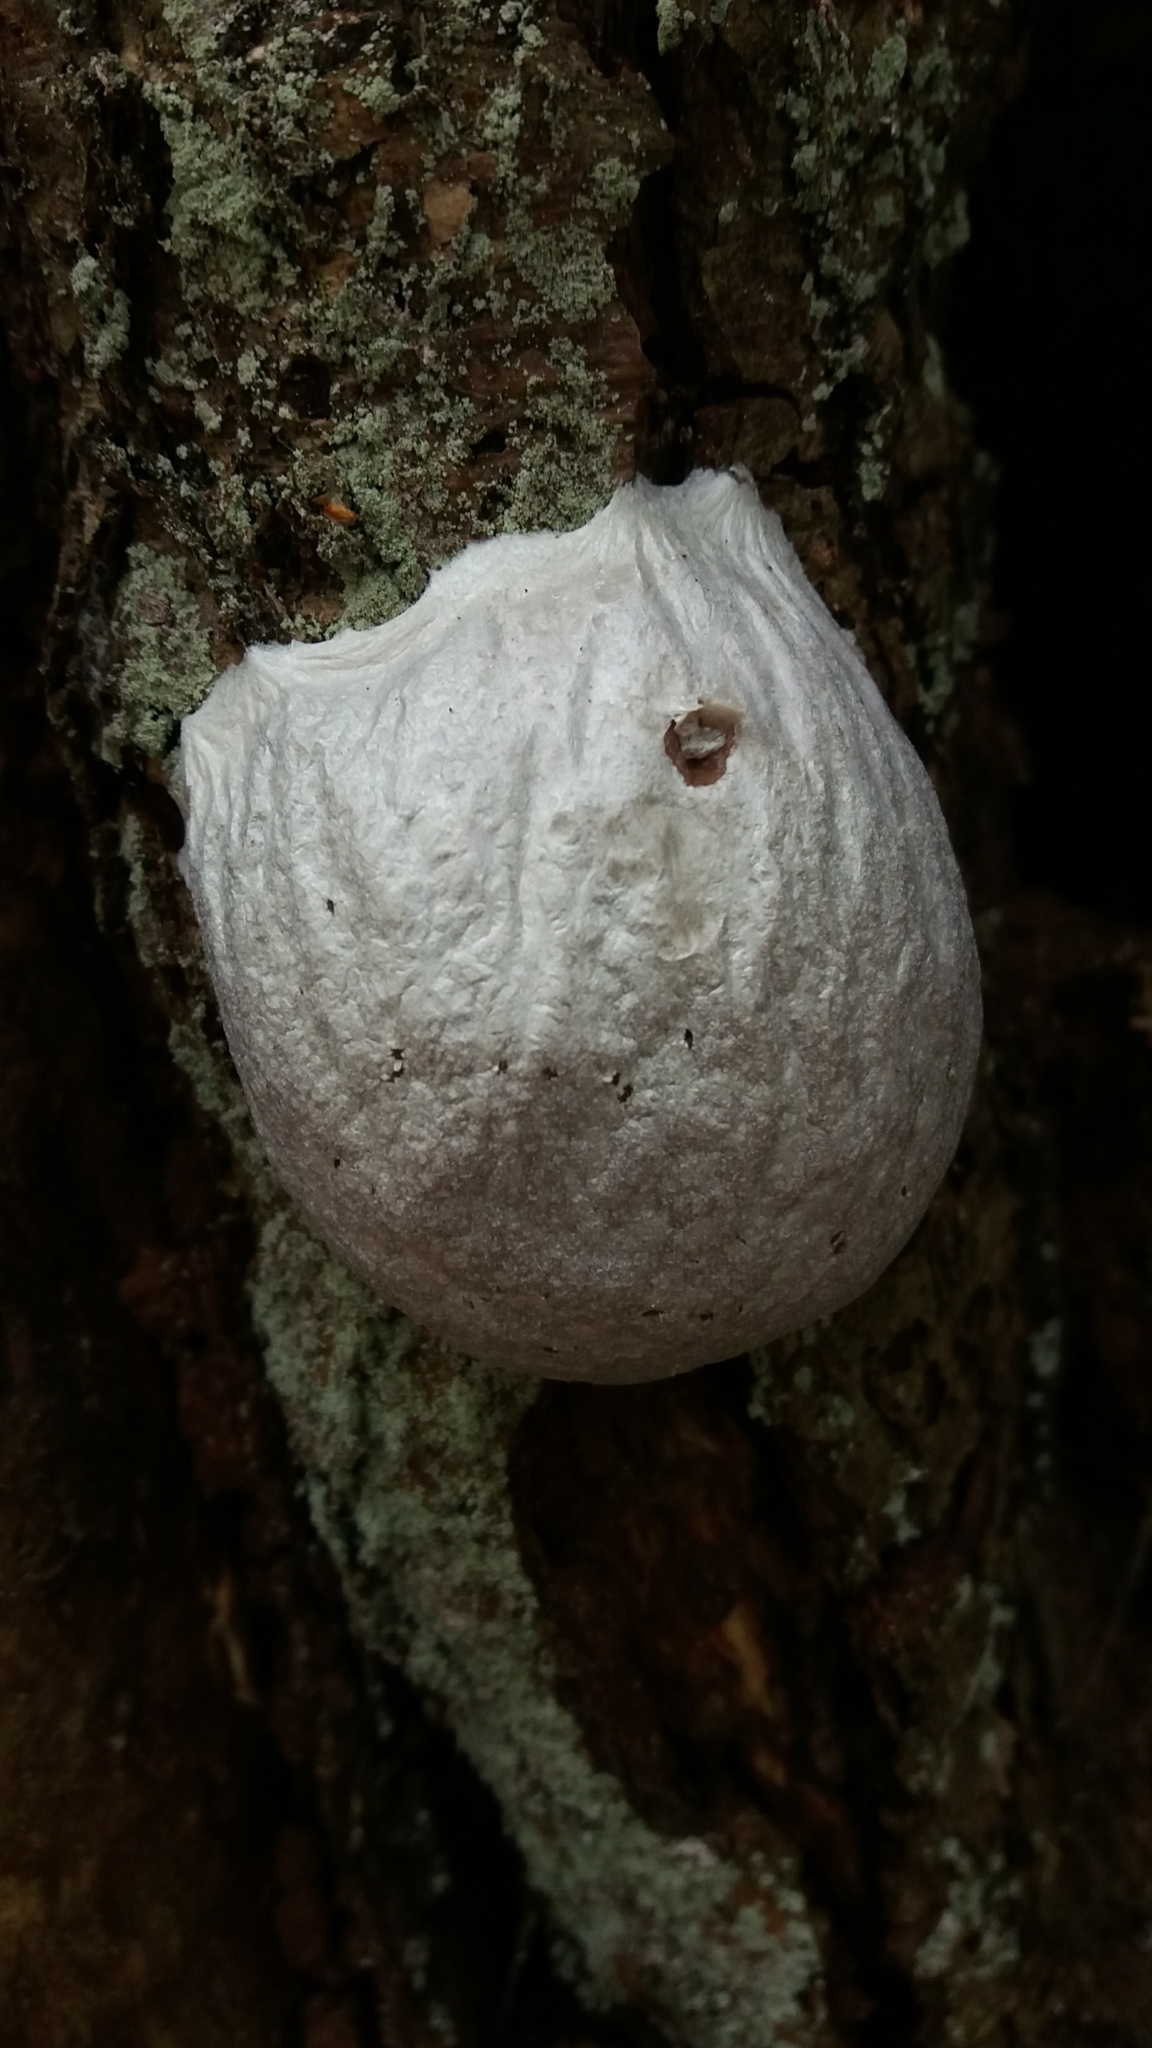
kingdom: Protozoa
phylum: Mycetozoa
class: Myxomycetes
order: Cribrariales
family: Tubiferaceae
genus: Reticularia
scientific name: Reticularia lycoperdon
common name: False puffball
